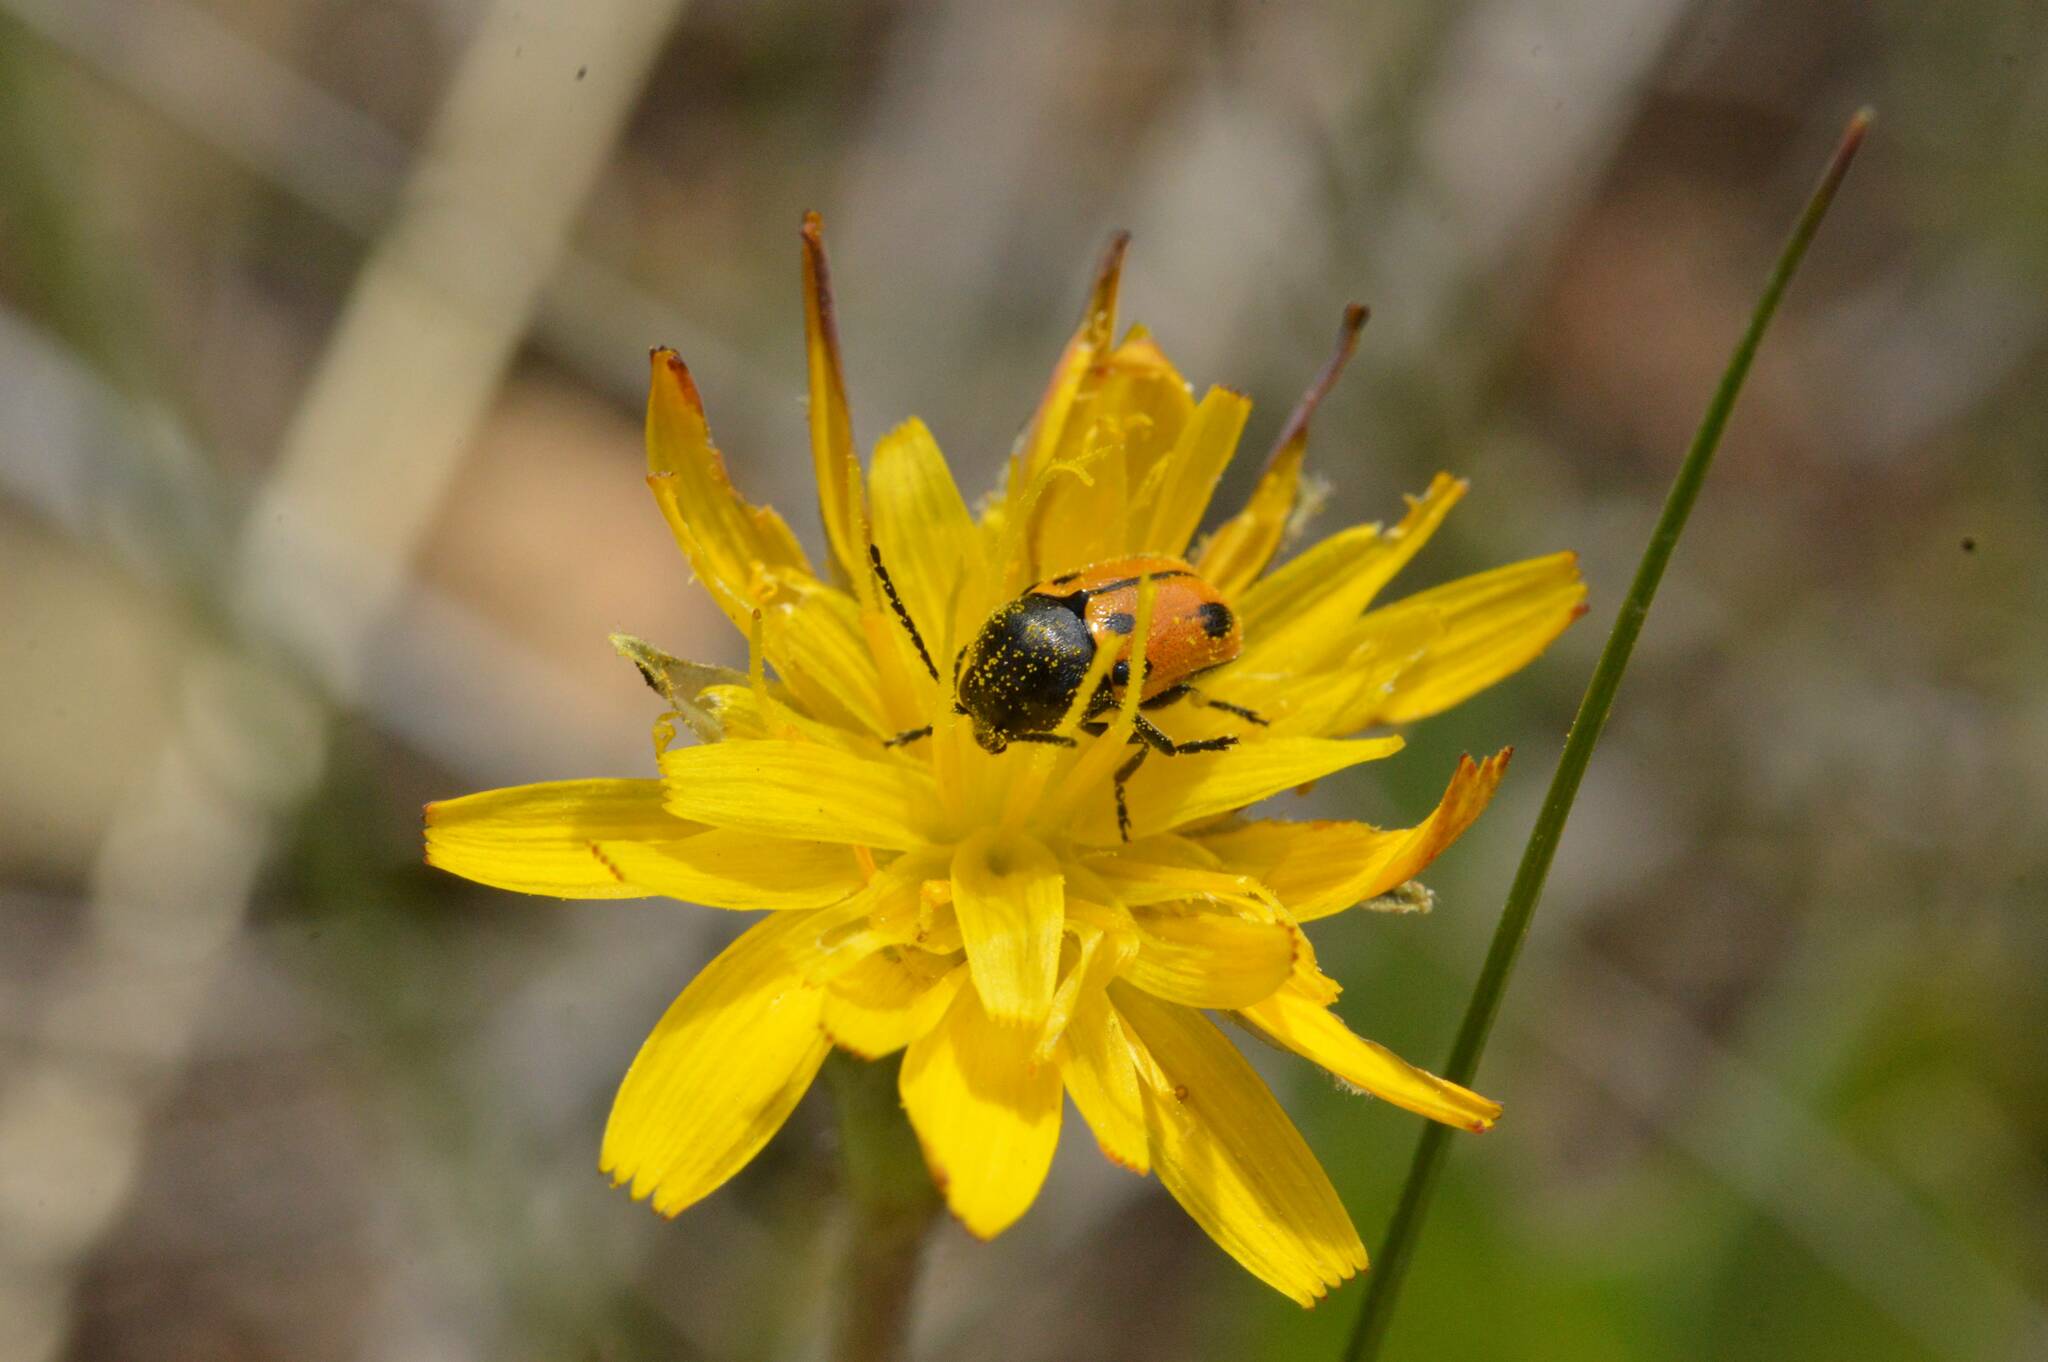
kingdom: Animalia
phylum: Arthropoda
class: Insecta
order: Coleoptera
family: Chrysomelidae
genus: Cryptocephalus
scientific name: Cryptocephalus rugicollis
